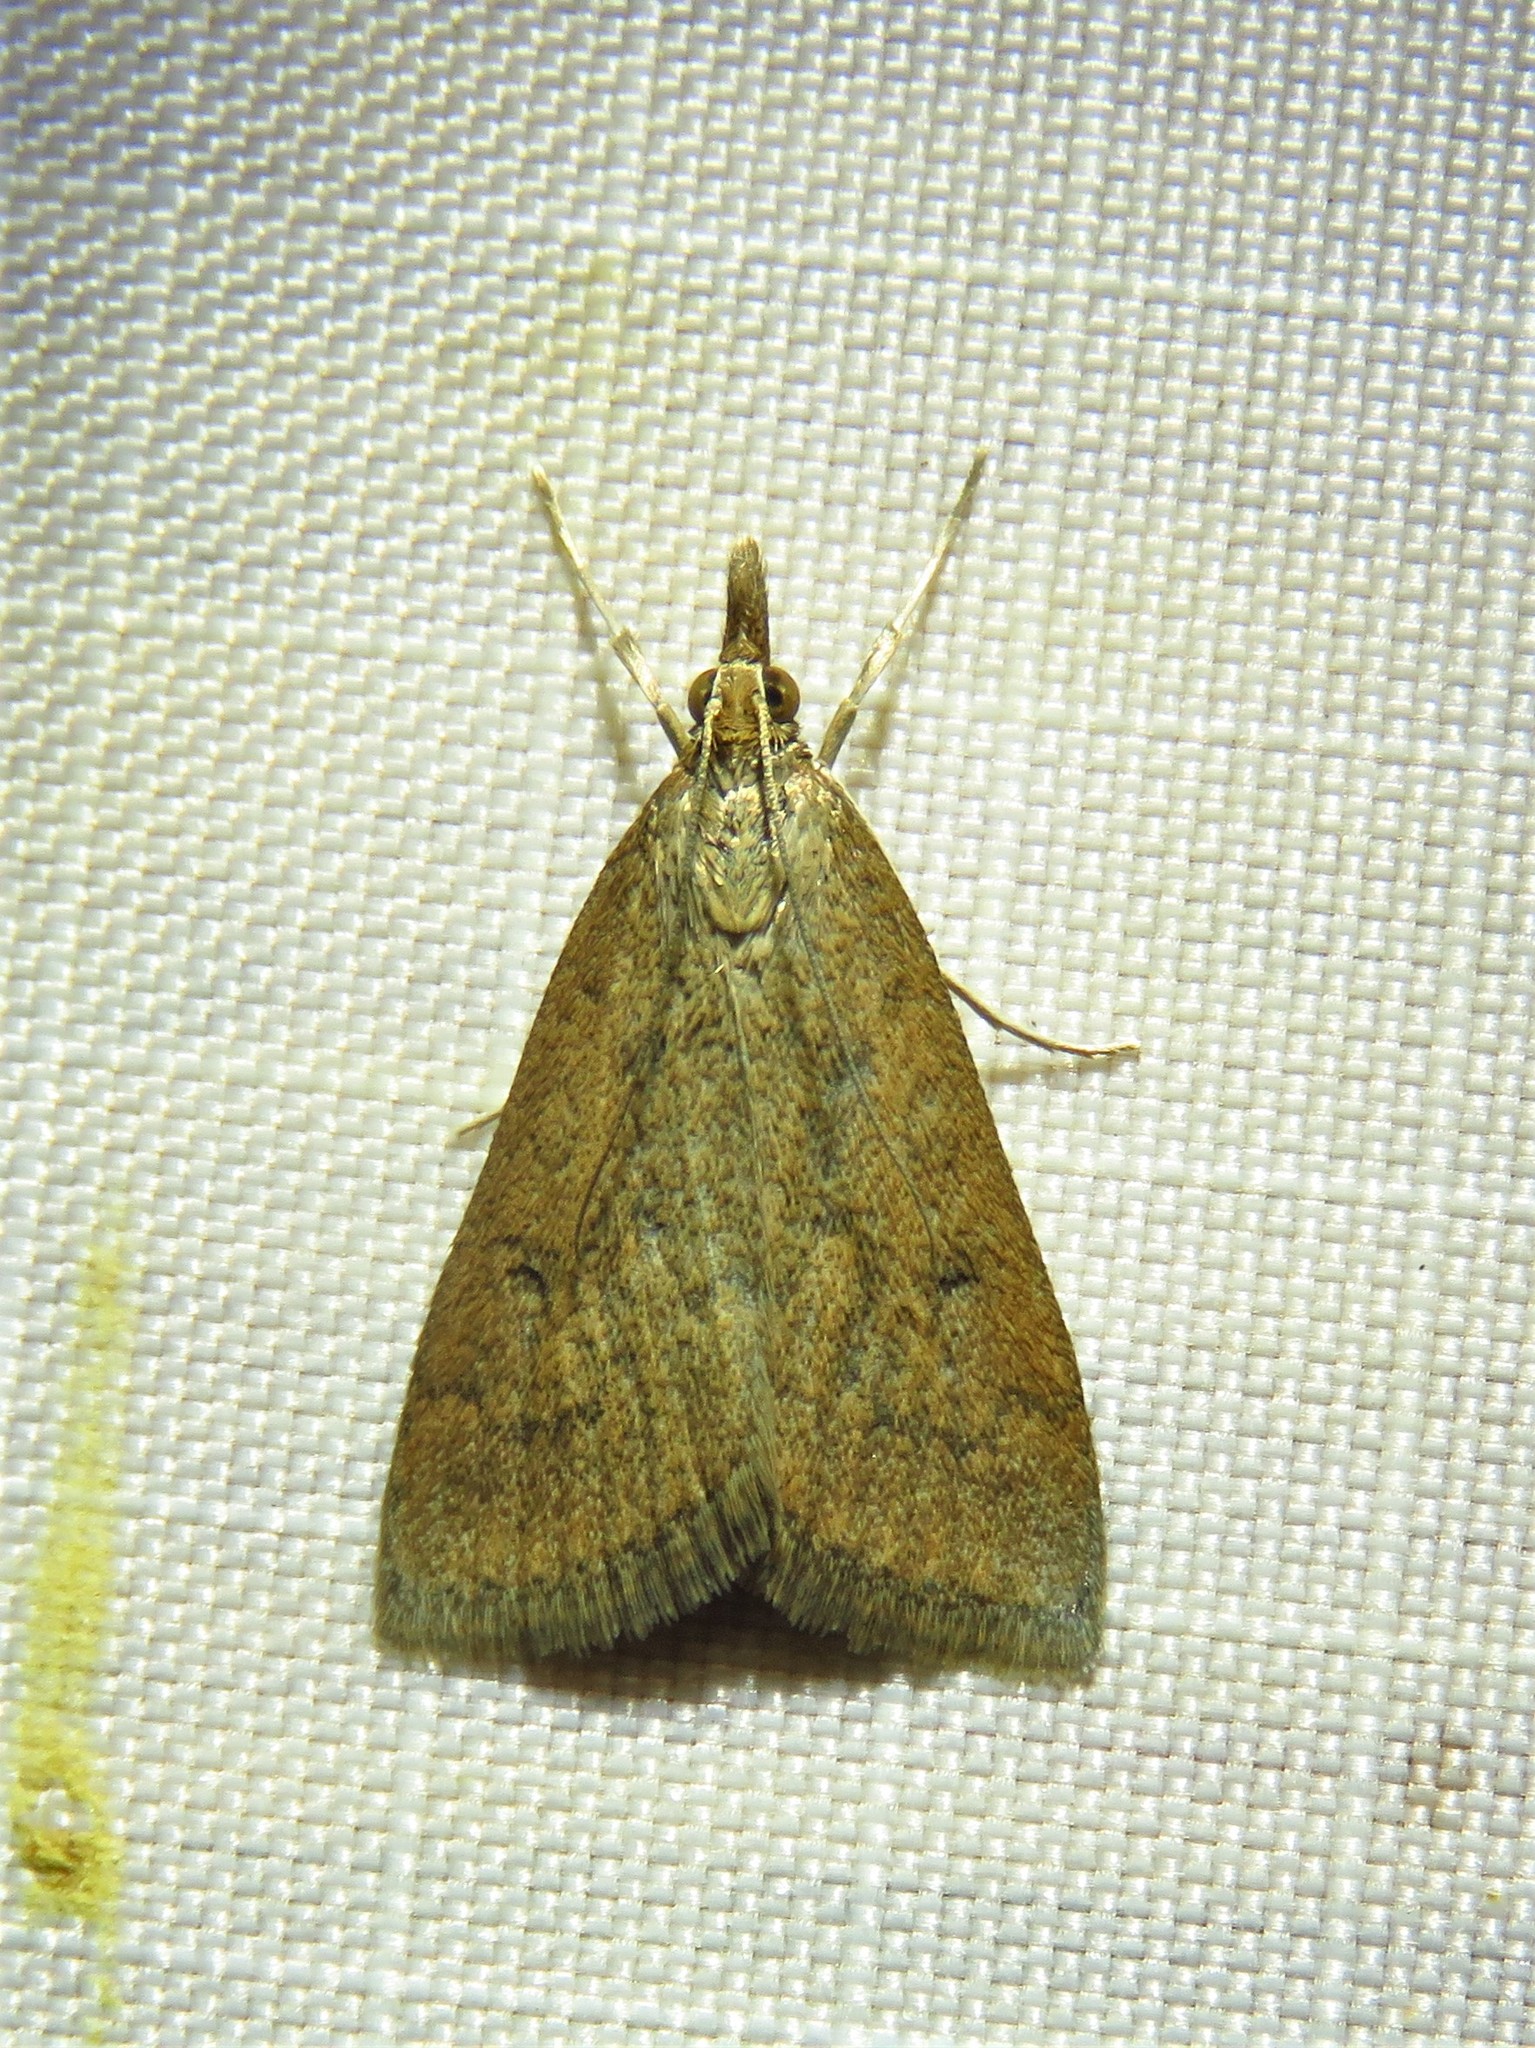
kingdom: Animalia
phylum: Arthropoda
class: Insecta
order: Lepidoptera
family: Crambidae
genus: Udea
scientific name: Udea rubigalis
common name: Celery leaftier moth
